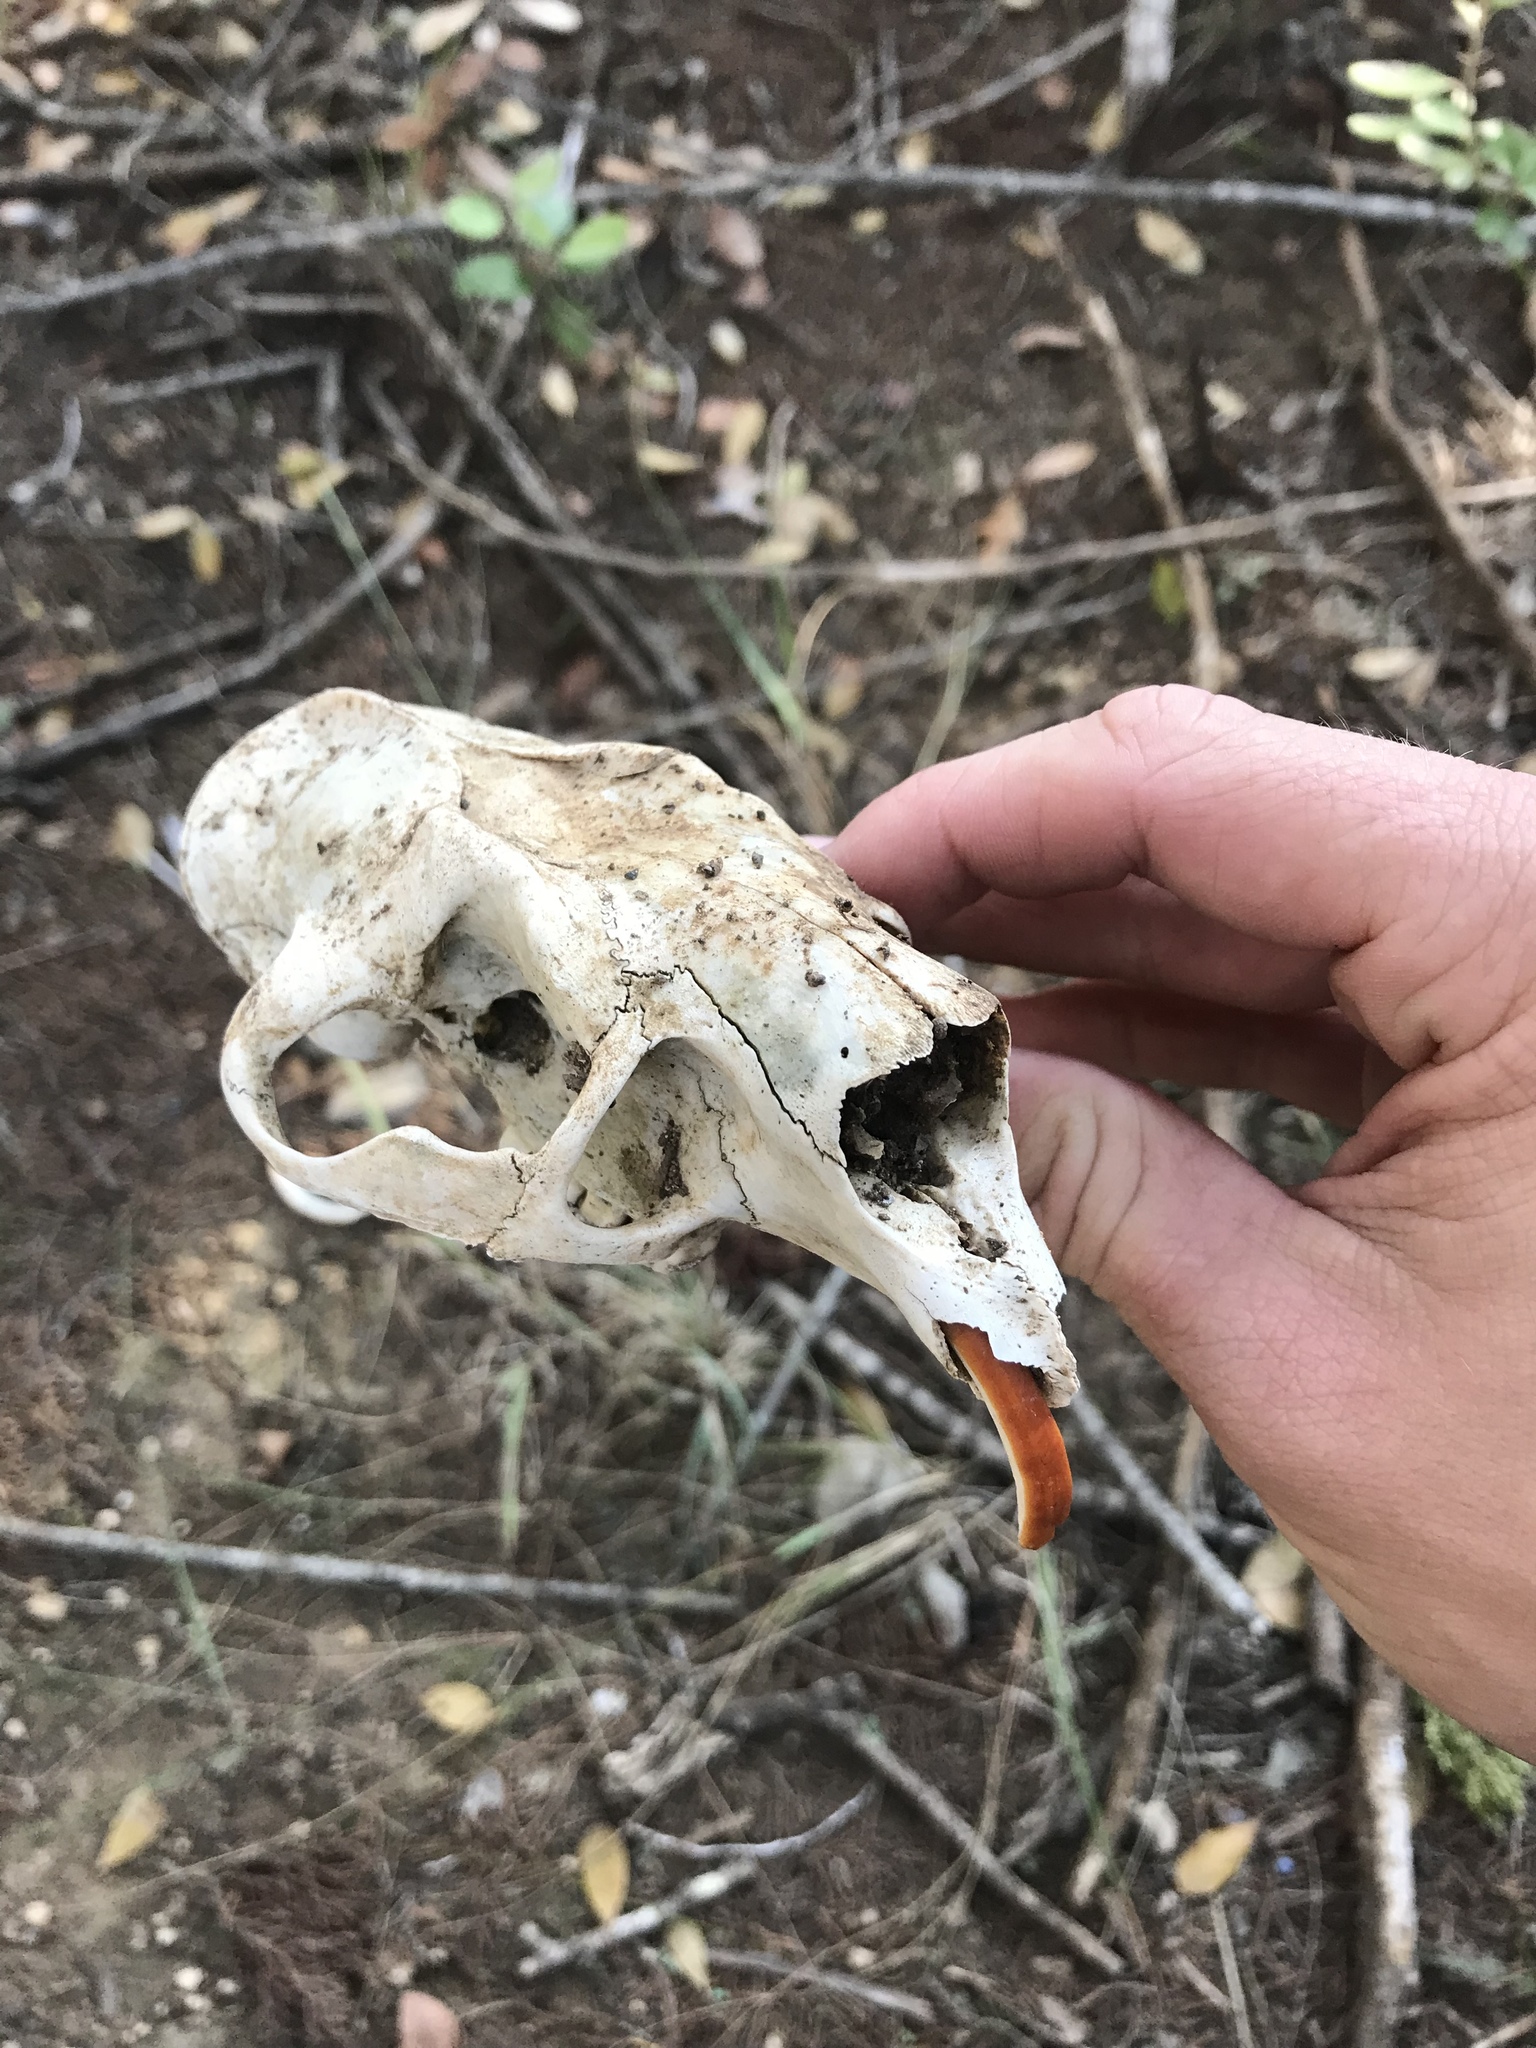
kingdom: Animalia
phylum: Chordata
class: Mammalia
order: Rodentia
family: Erethizontidae
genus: Erethizon
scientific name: Erethizon dorsatus
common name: North american porcupine
